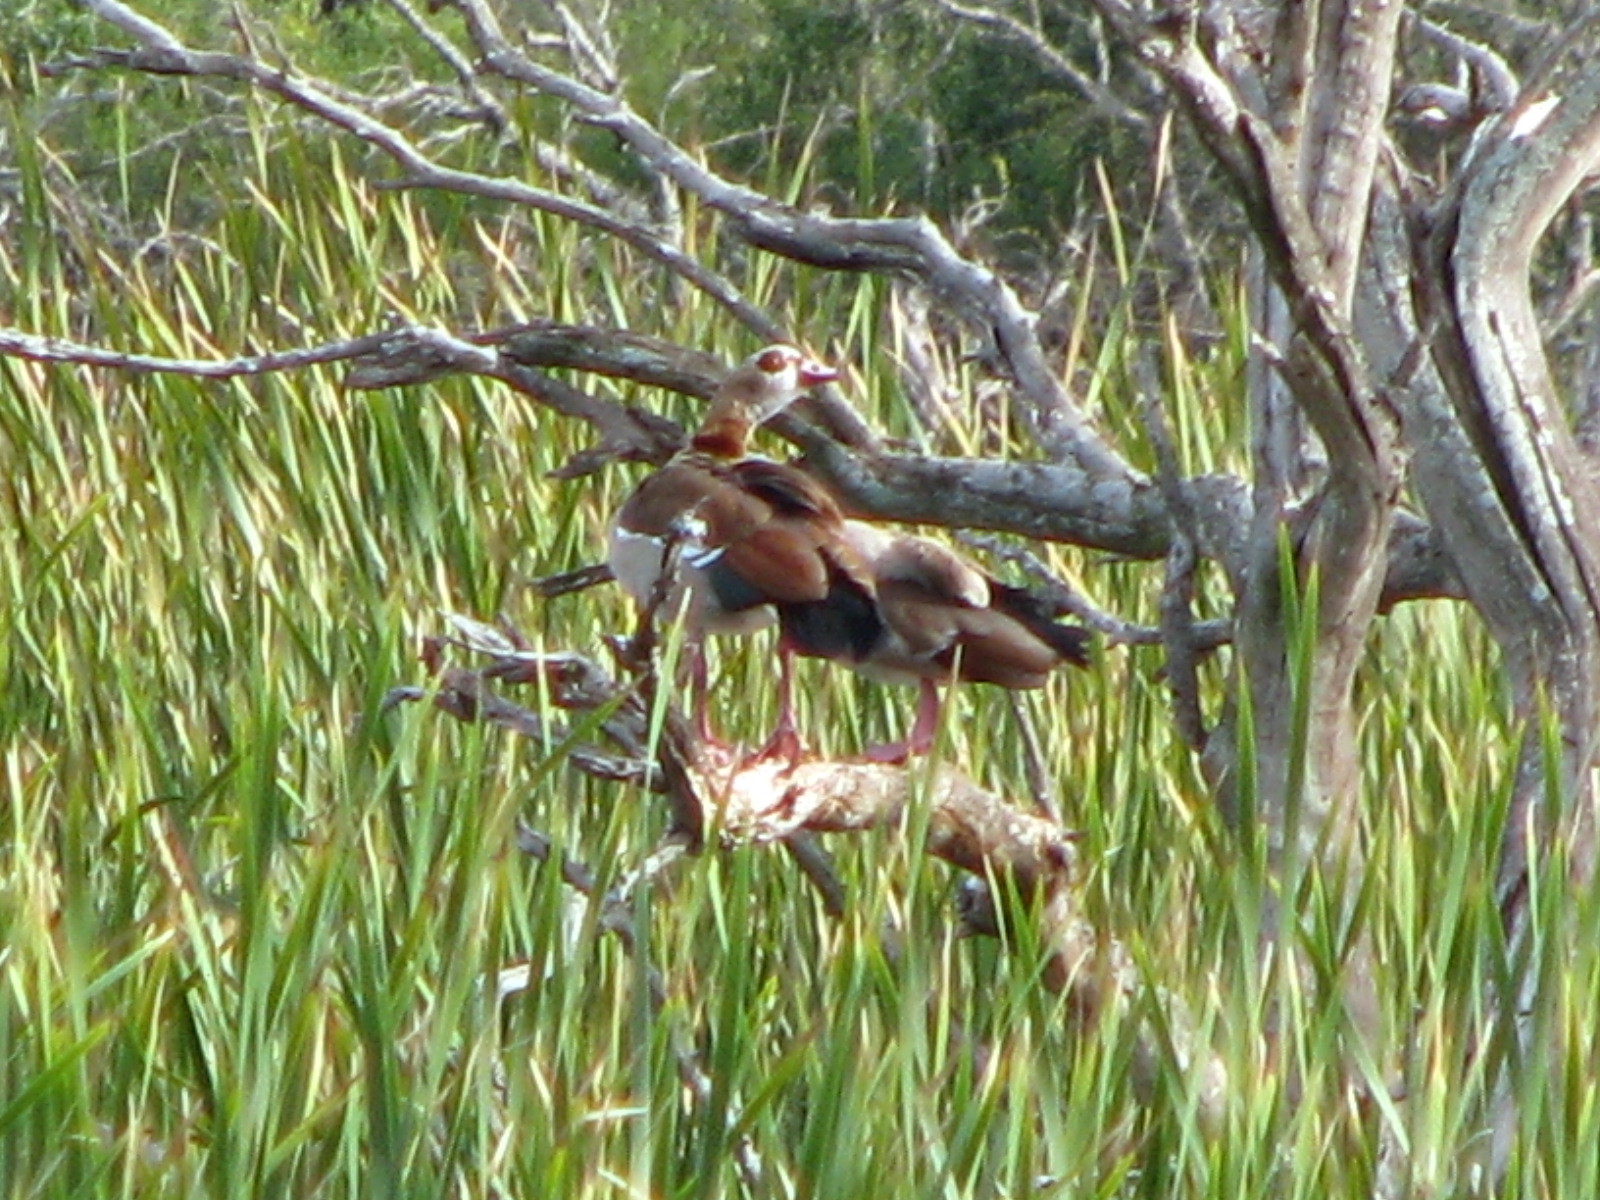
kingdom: Animalia
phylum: Chordata
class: Aves
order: Anseriformes
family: Anatidae
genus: Alopochen
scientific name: Alopochen aegyptiaca
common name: Egyptian goose
